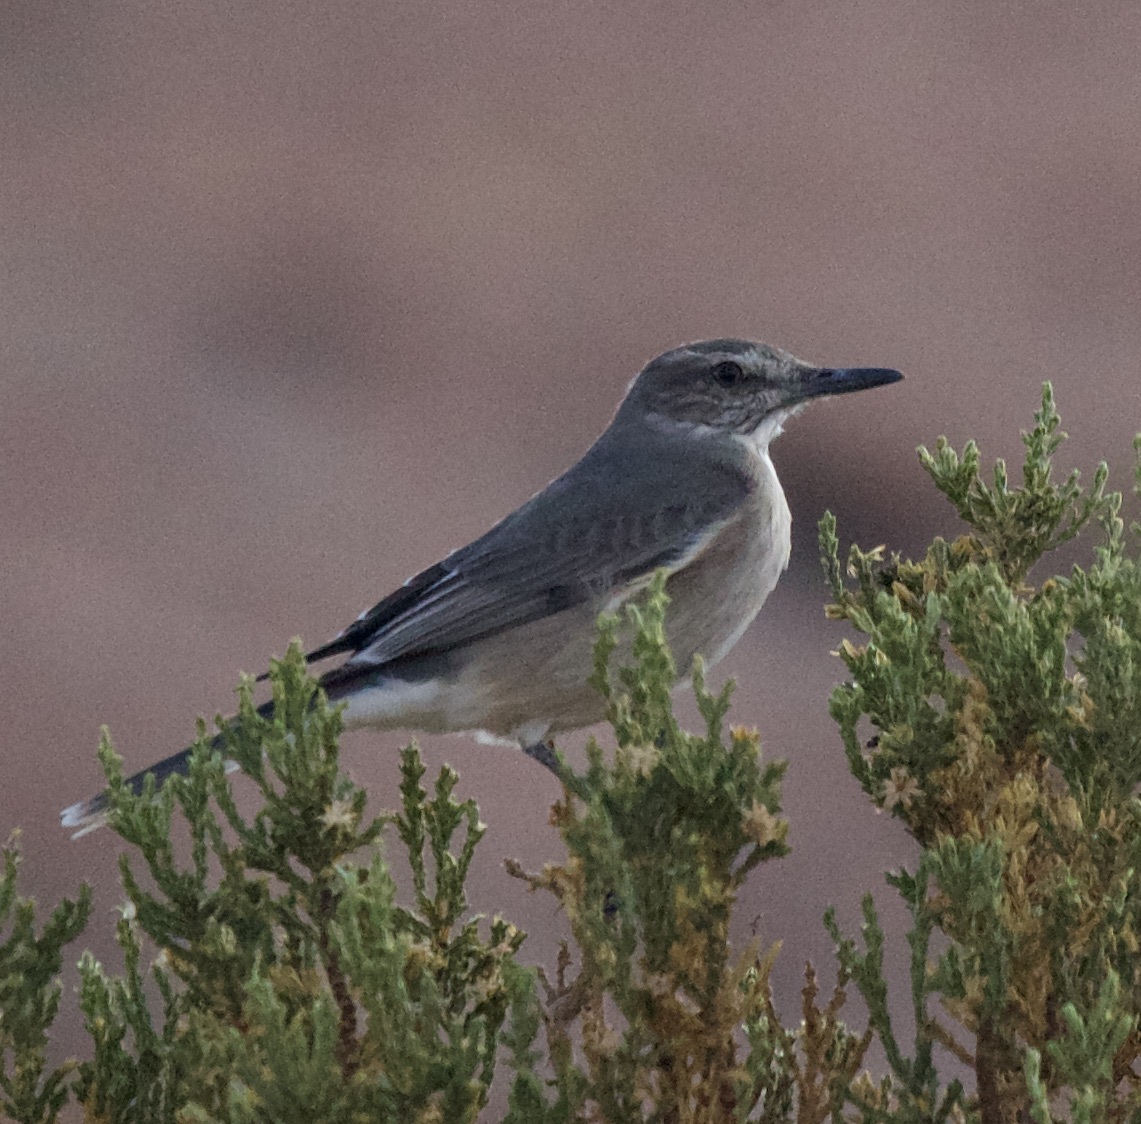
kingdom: Animalia
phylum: Chordata
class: Aves
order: Passeriformes
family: Tyrannidae
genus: Agriornis
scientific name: Agriornis montanus
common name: Black-billed shrike-tyrant
